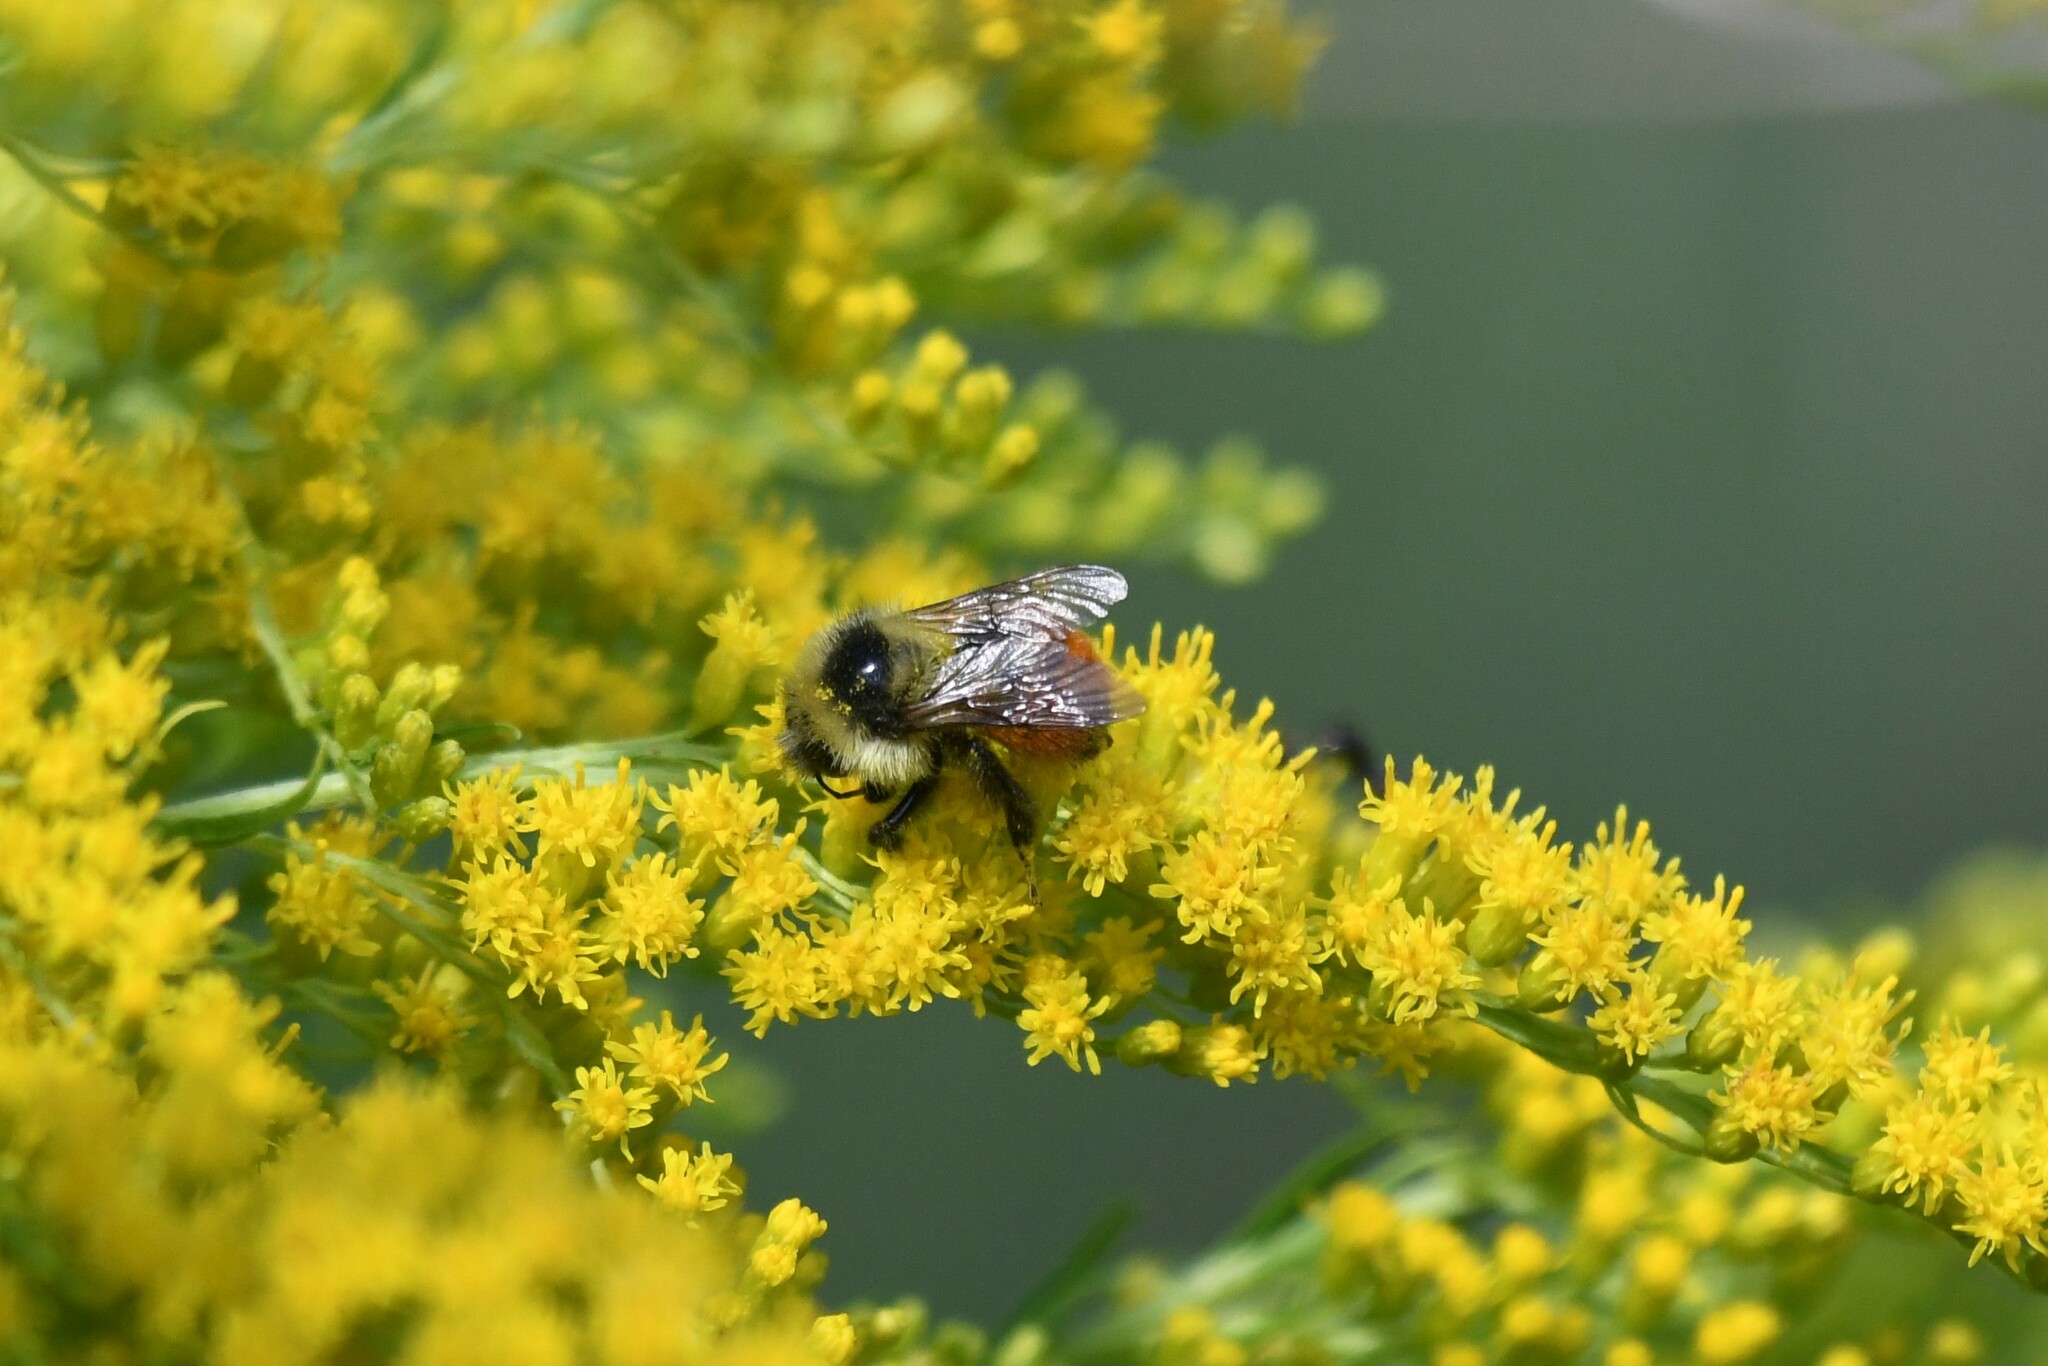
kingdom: Animalia
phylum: Arthropoda
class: Insecta
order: Hymenoptera
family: Apidae
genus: Bombus
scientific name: Bombus rufocinctus
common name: Red-belted bumble bee
